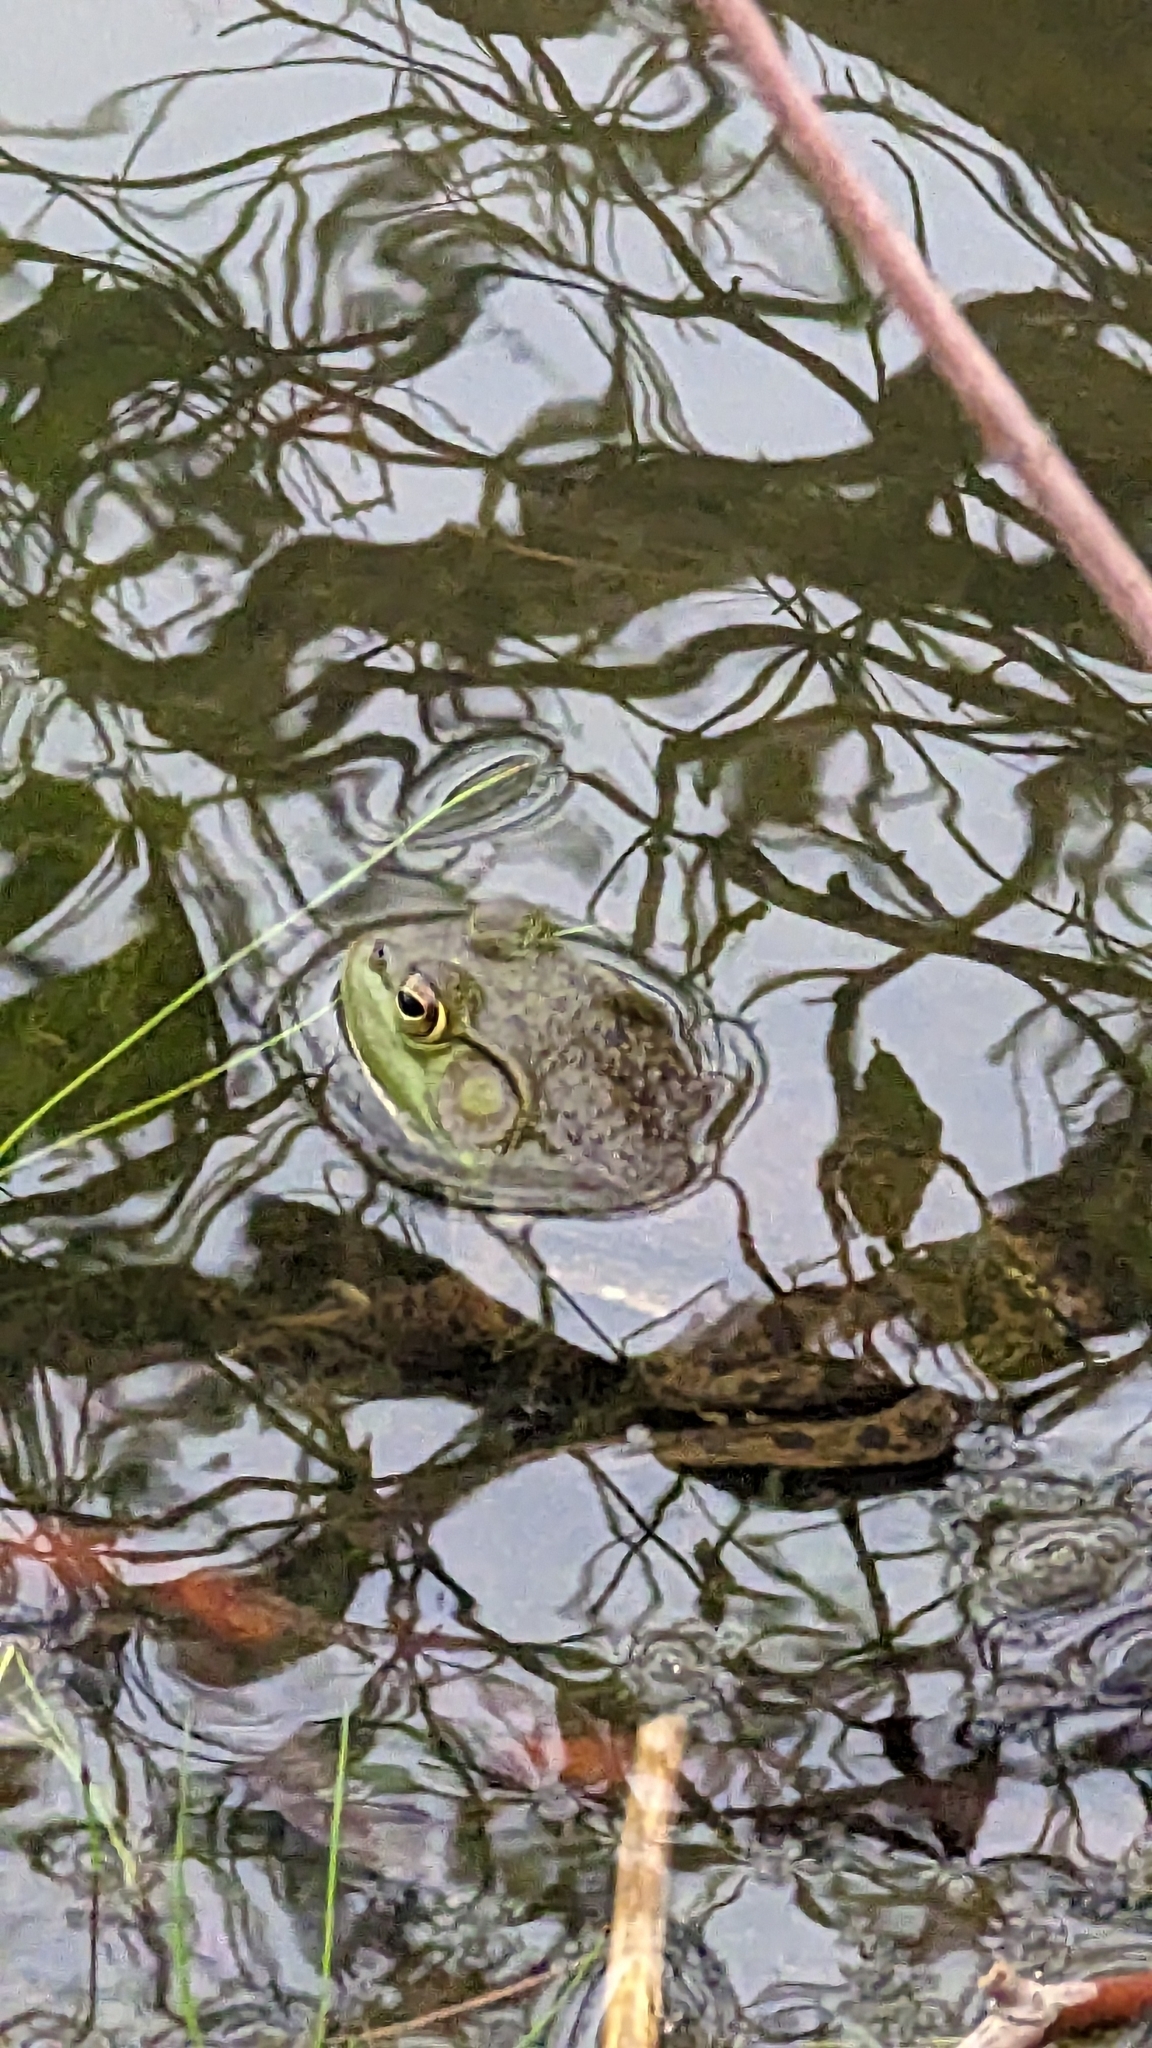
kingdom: Animalia
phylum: Chordata
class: Amphibia
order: Anura
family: Ranidae
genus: Lithobates
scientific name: Lithobates catesbeianus
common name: American bullfrog
